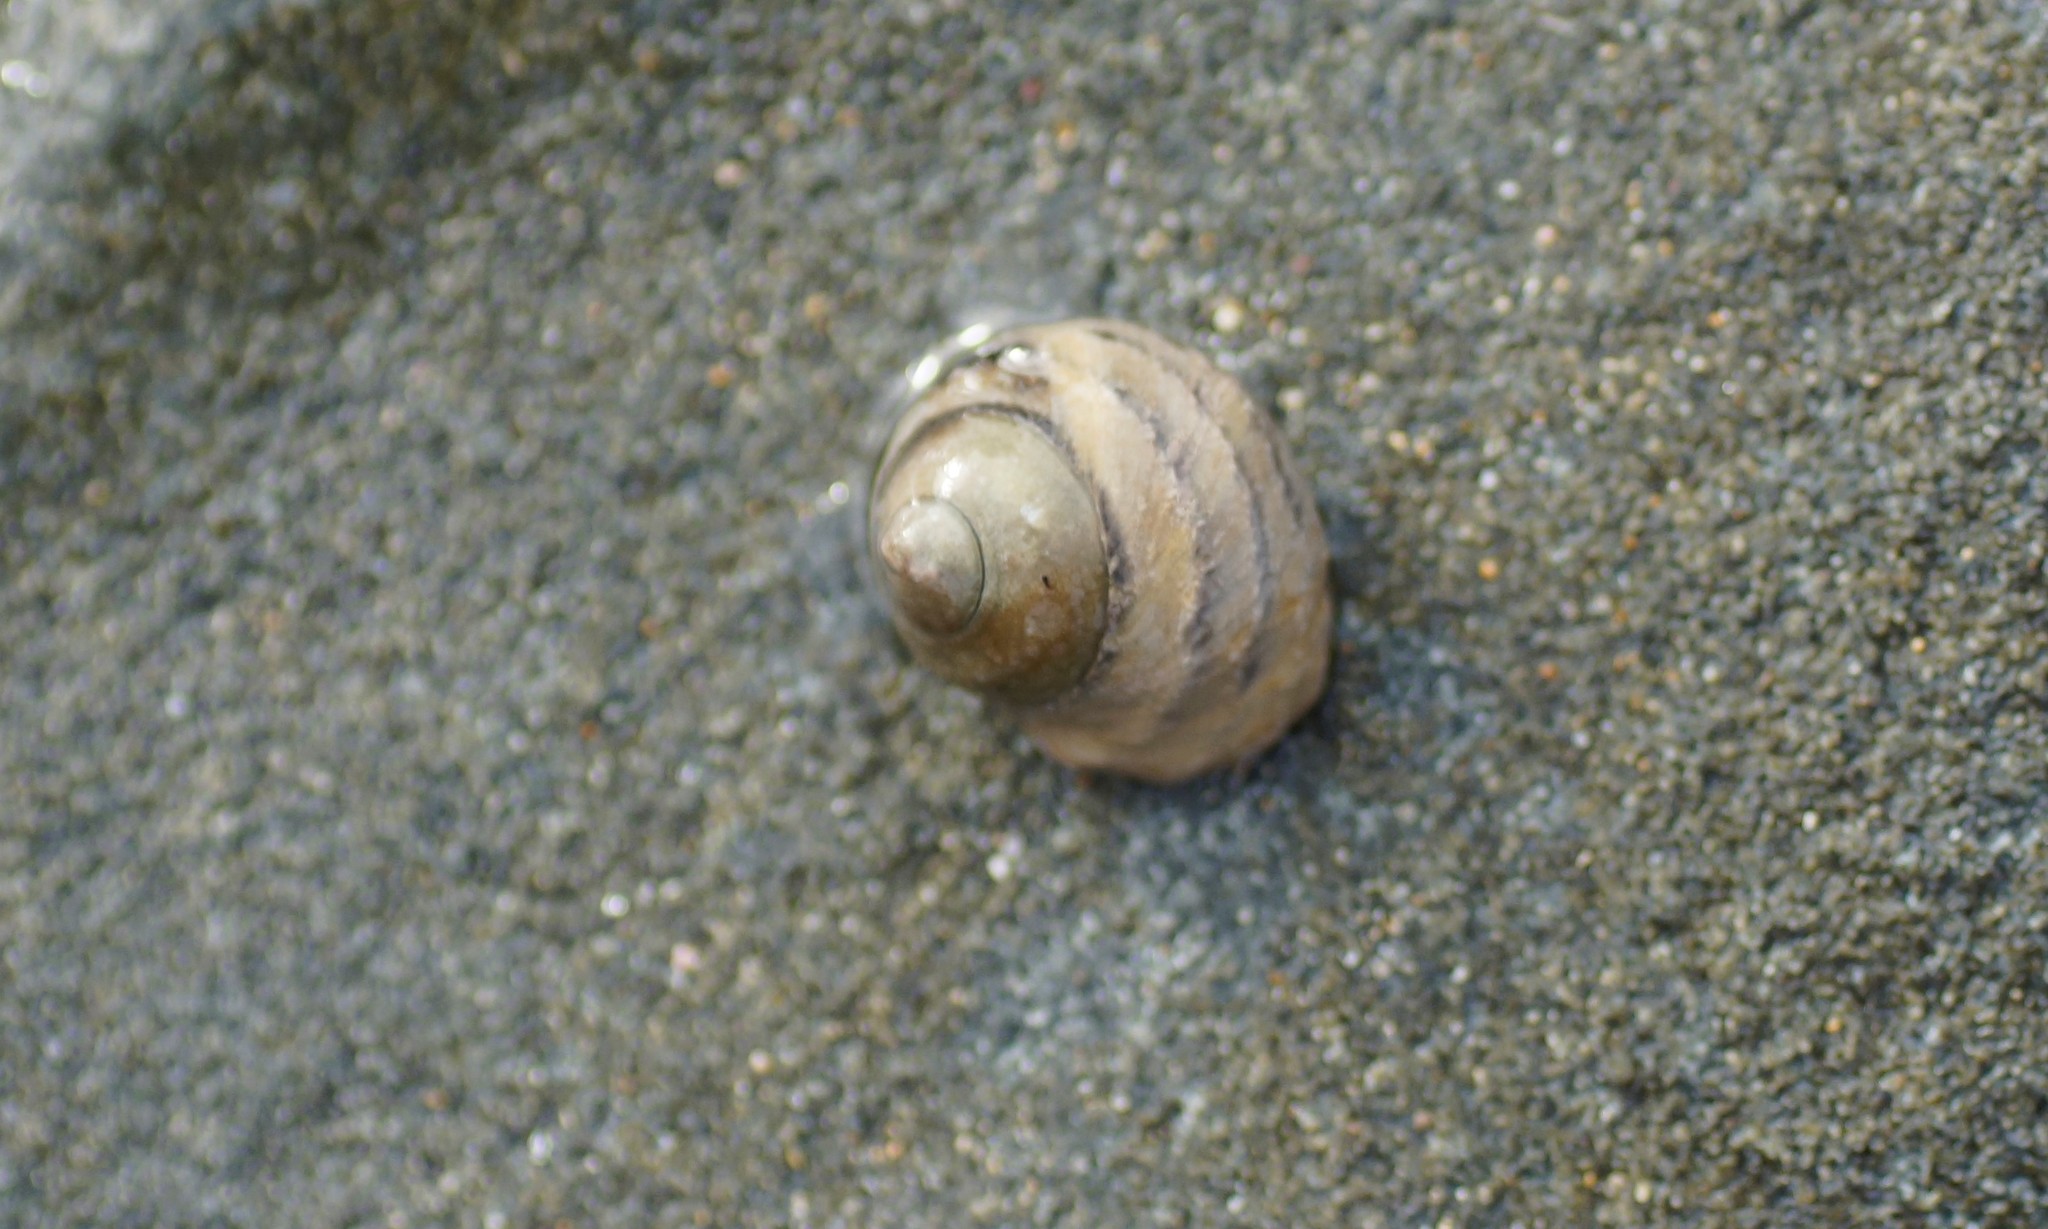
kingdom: Animalia
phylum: Mollusca
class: Gastropoda
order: Trochida
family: Trochidae
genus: Austrocochlea
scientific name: Austrocochlea constricta
